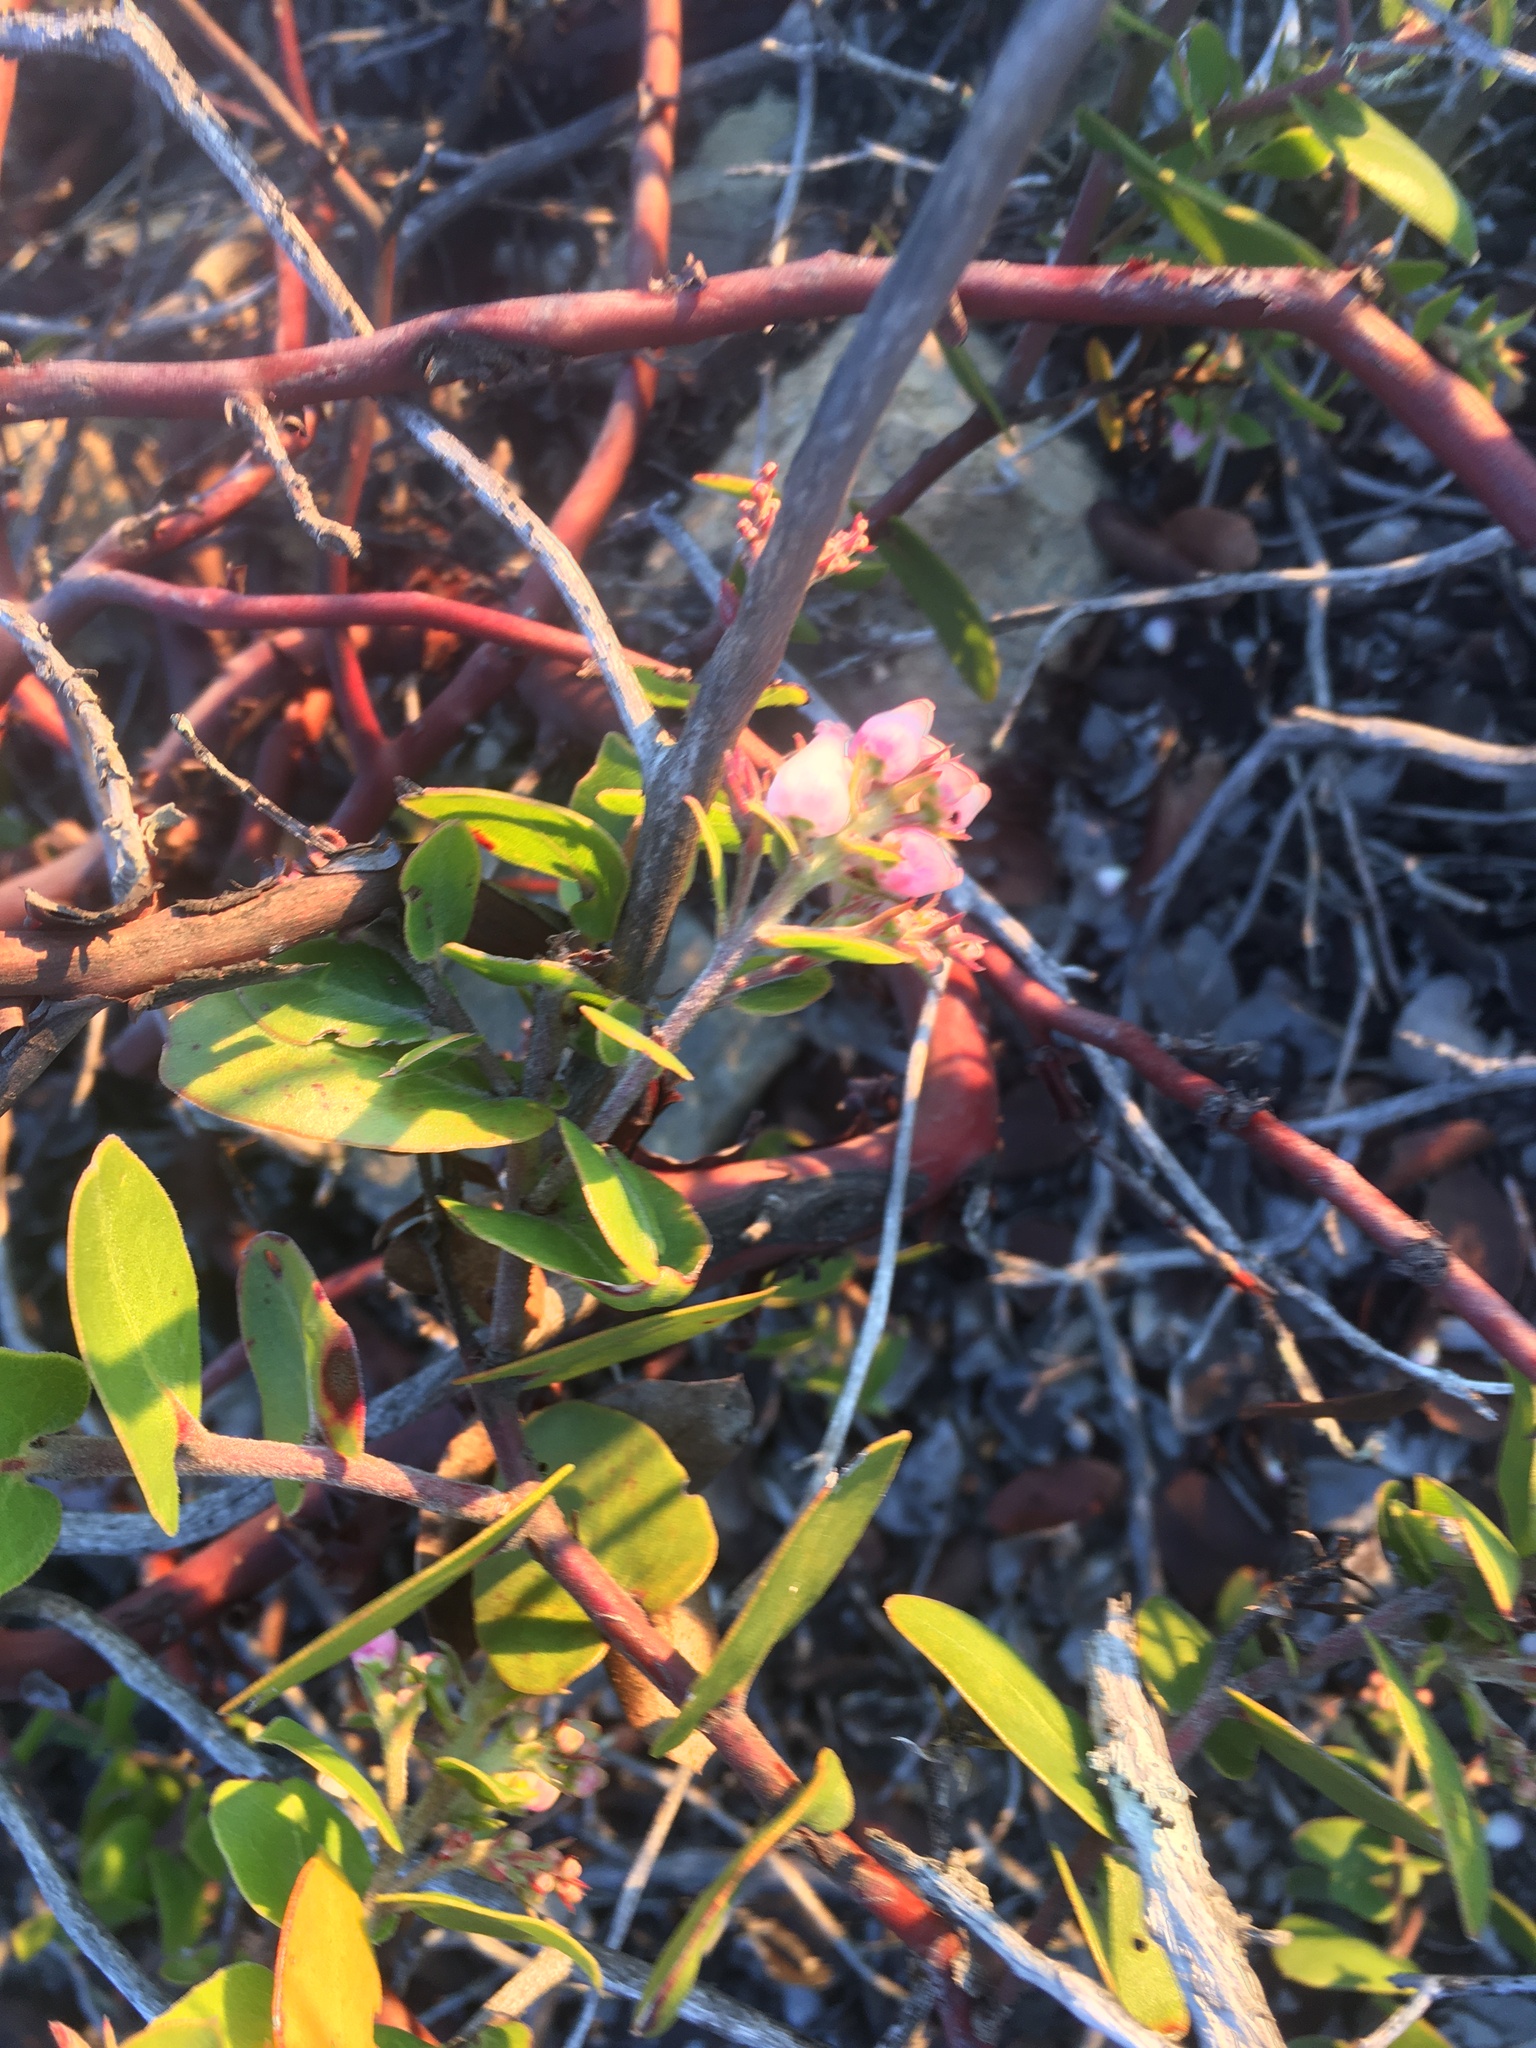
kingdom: Plantae
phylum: Tracheophyta
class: Magnoliopsida
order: Ericales
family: Ericaceae
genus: Arctostaphylos
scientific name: Arctostaphylos osoensis
